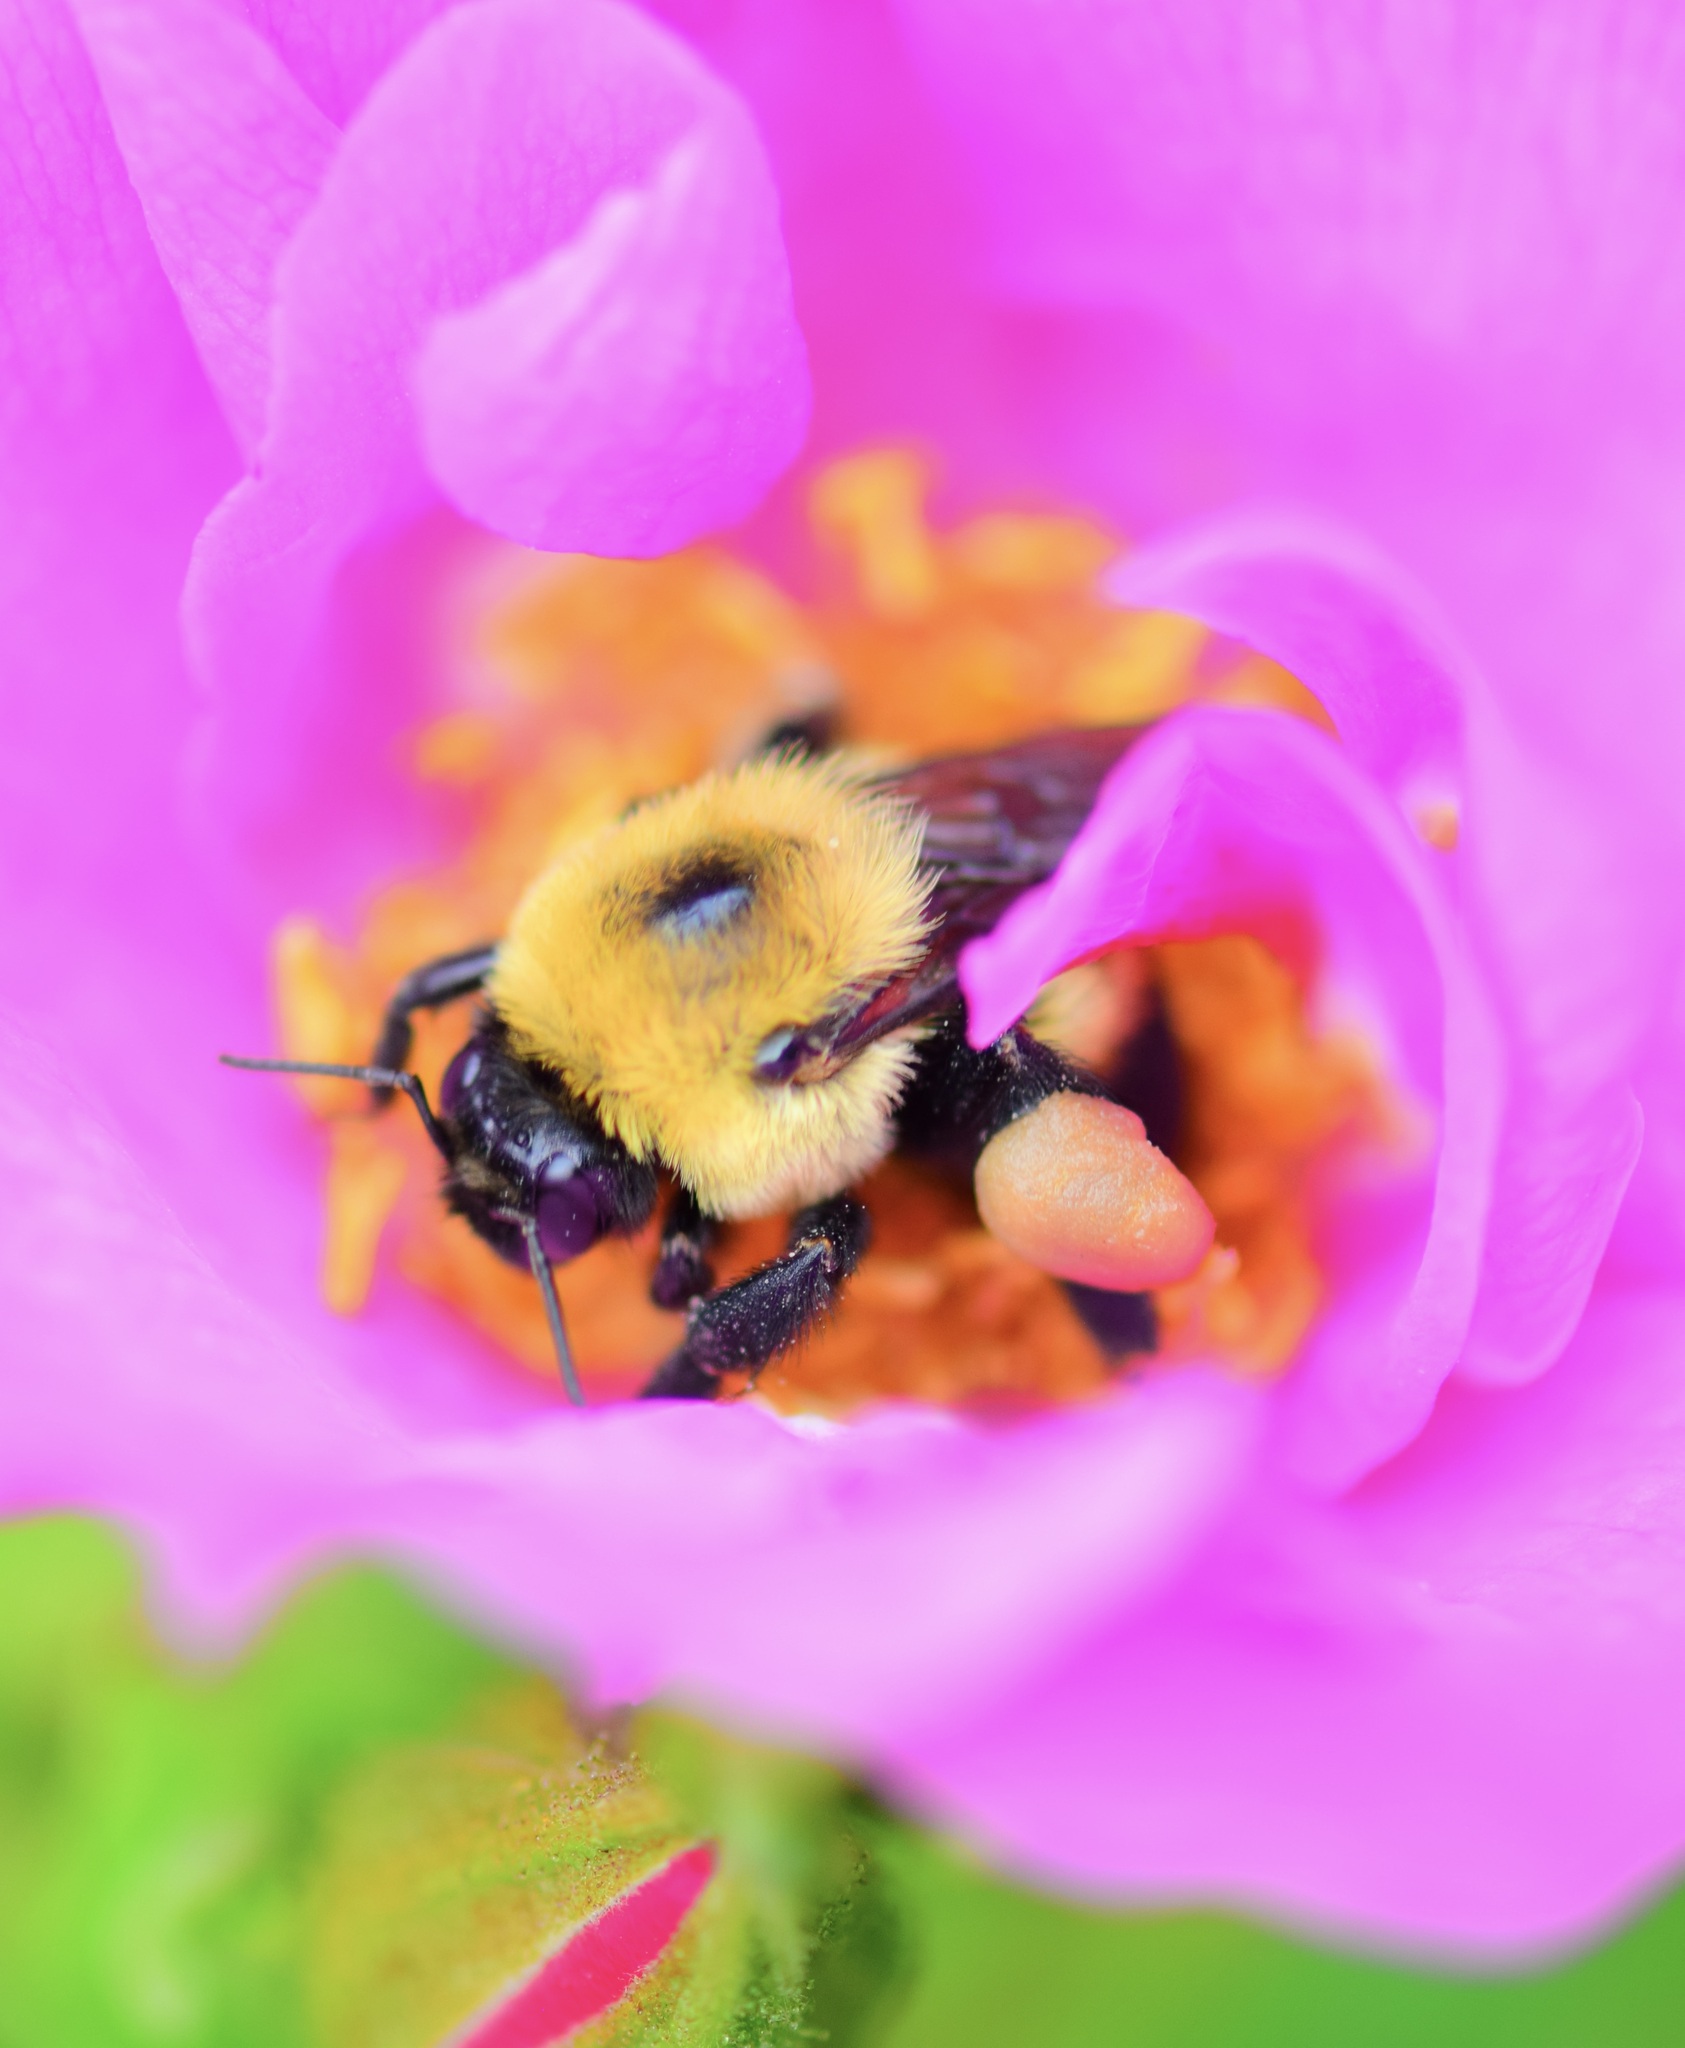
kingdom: Animalia
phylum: Arthropoda
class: Insecta
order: Hymenoptera
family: Apidae
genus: Bombus
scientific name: Bombus griseocollis
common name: Brown-belted bumble bee
